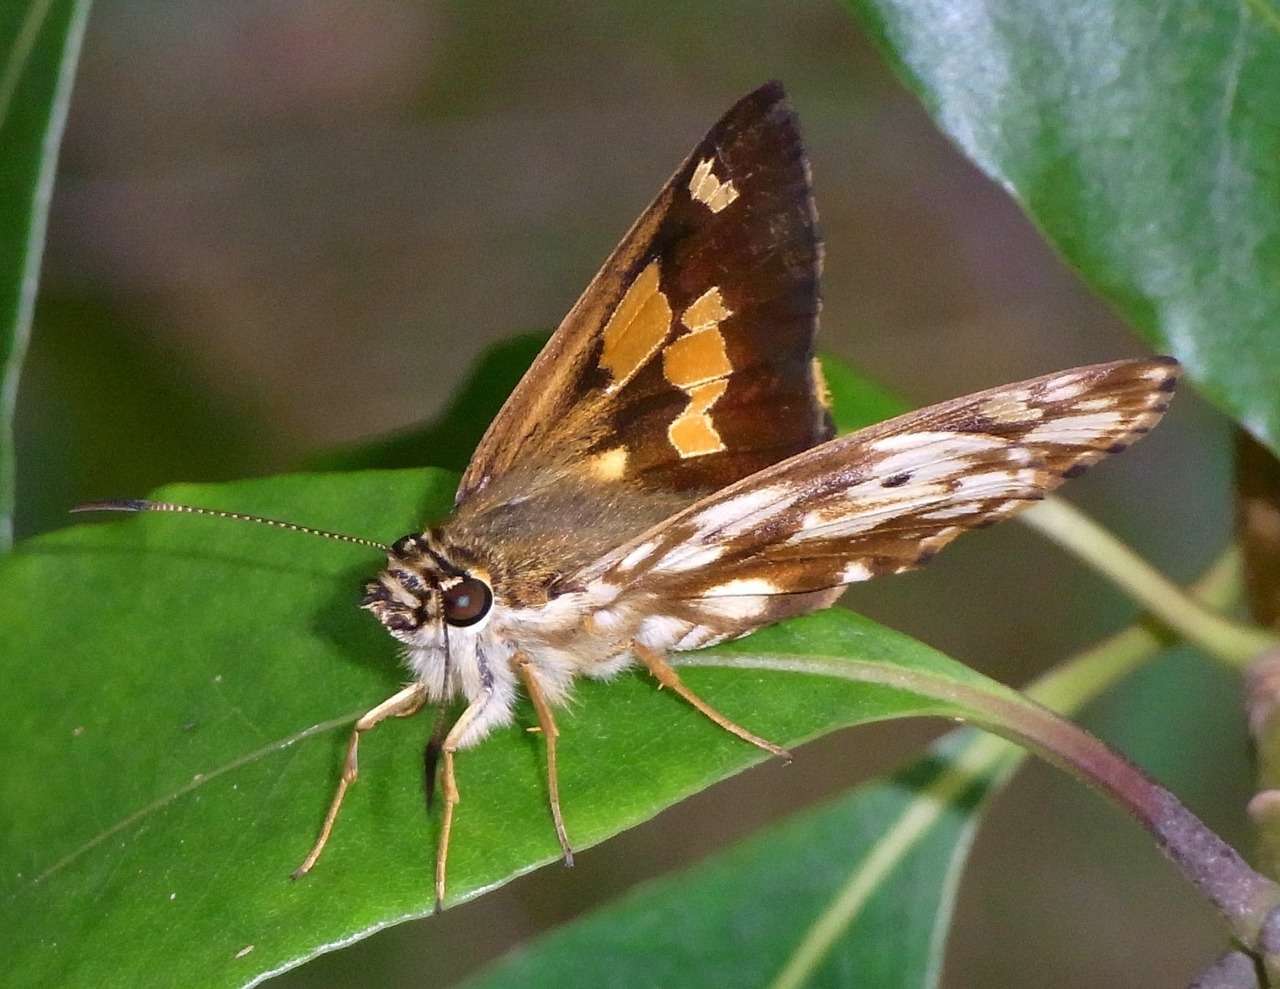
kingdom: Animalia
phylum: Arthropoda
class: Insecta
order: Lepidoptera
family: Hesperiidae
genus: Hesperilla
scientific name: Hesperilla mastersi
